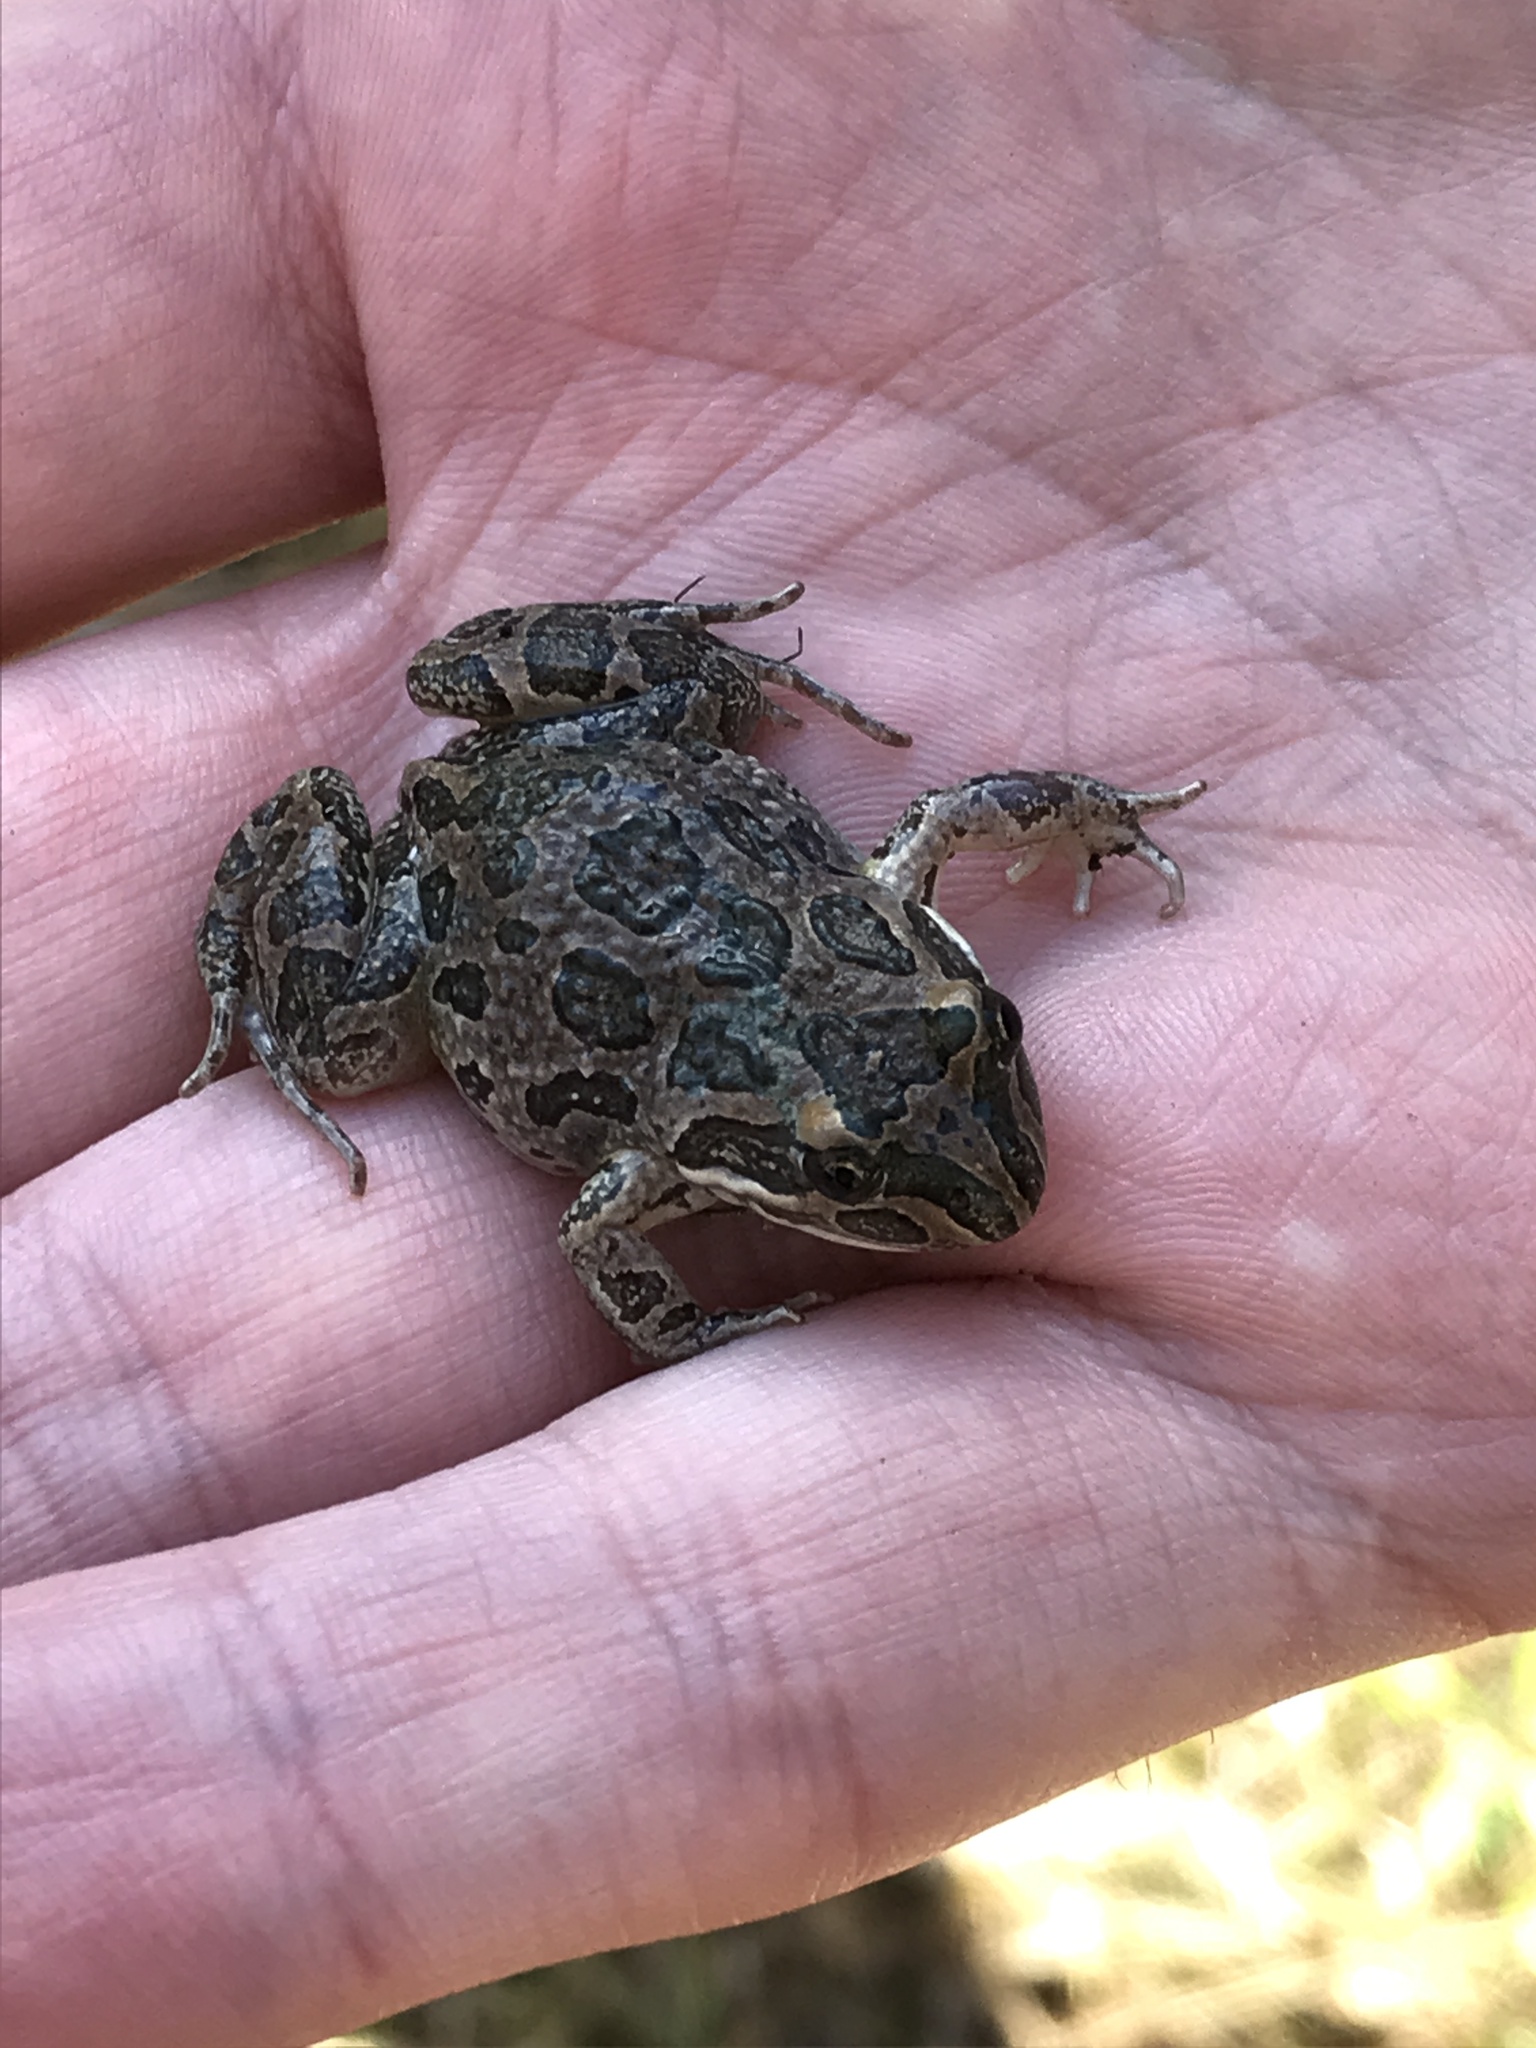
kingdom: Animalia
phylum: Chordata
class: Amphibia
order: Anura
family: Limnodynastidae
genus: Limnodynastes
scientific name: Limnodynastes tasmaniensis
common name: Spotted marsh frog
